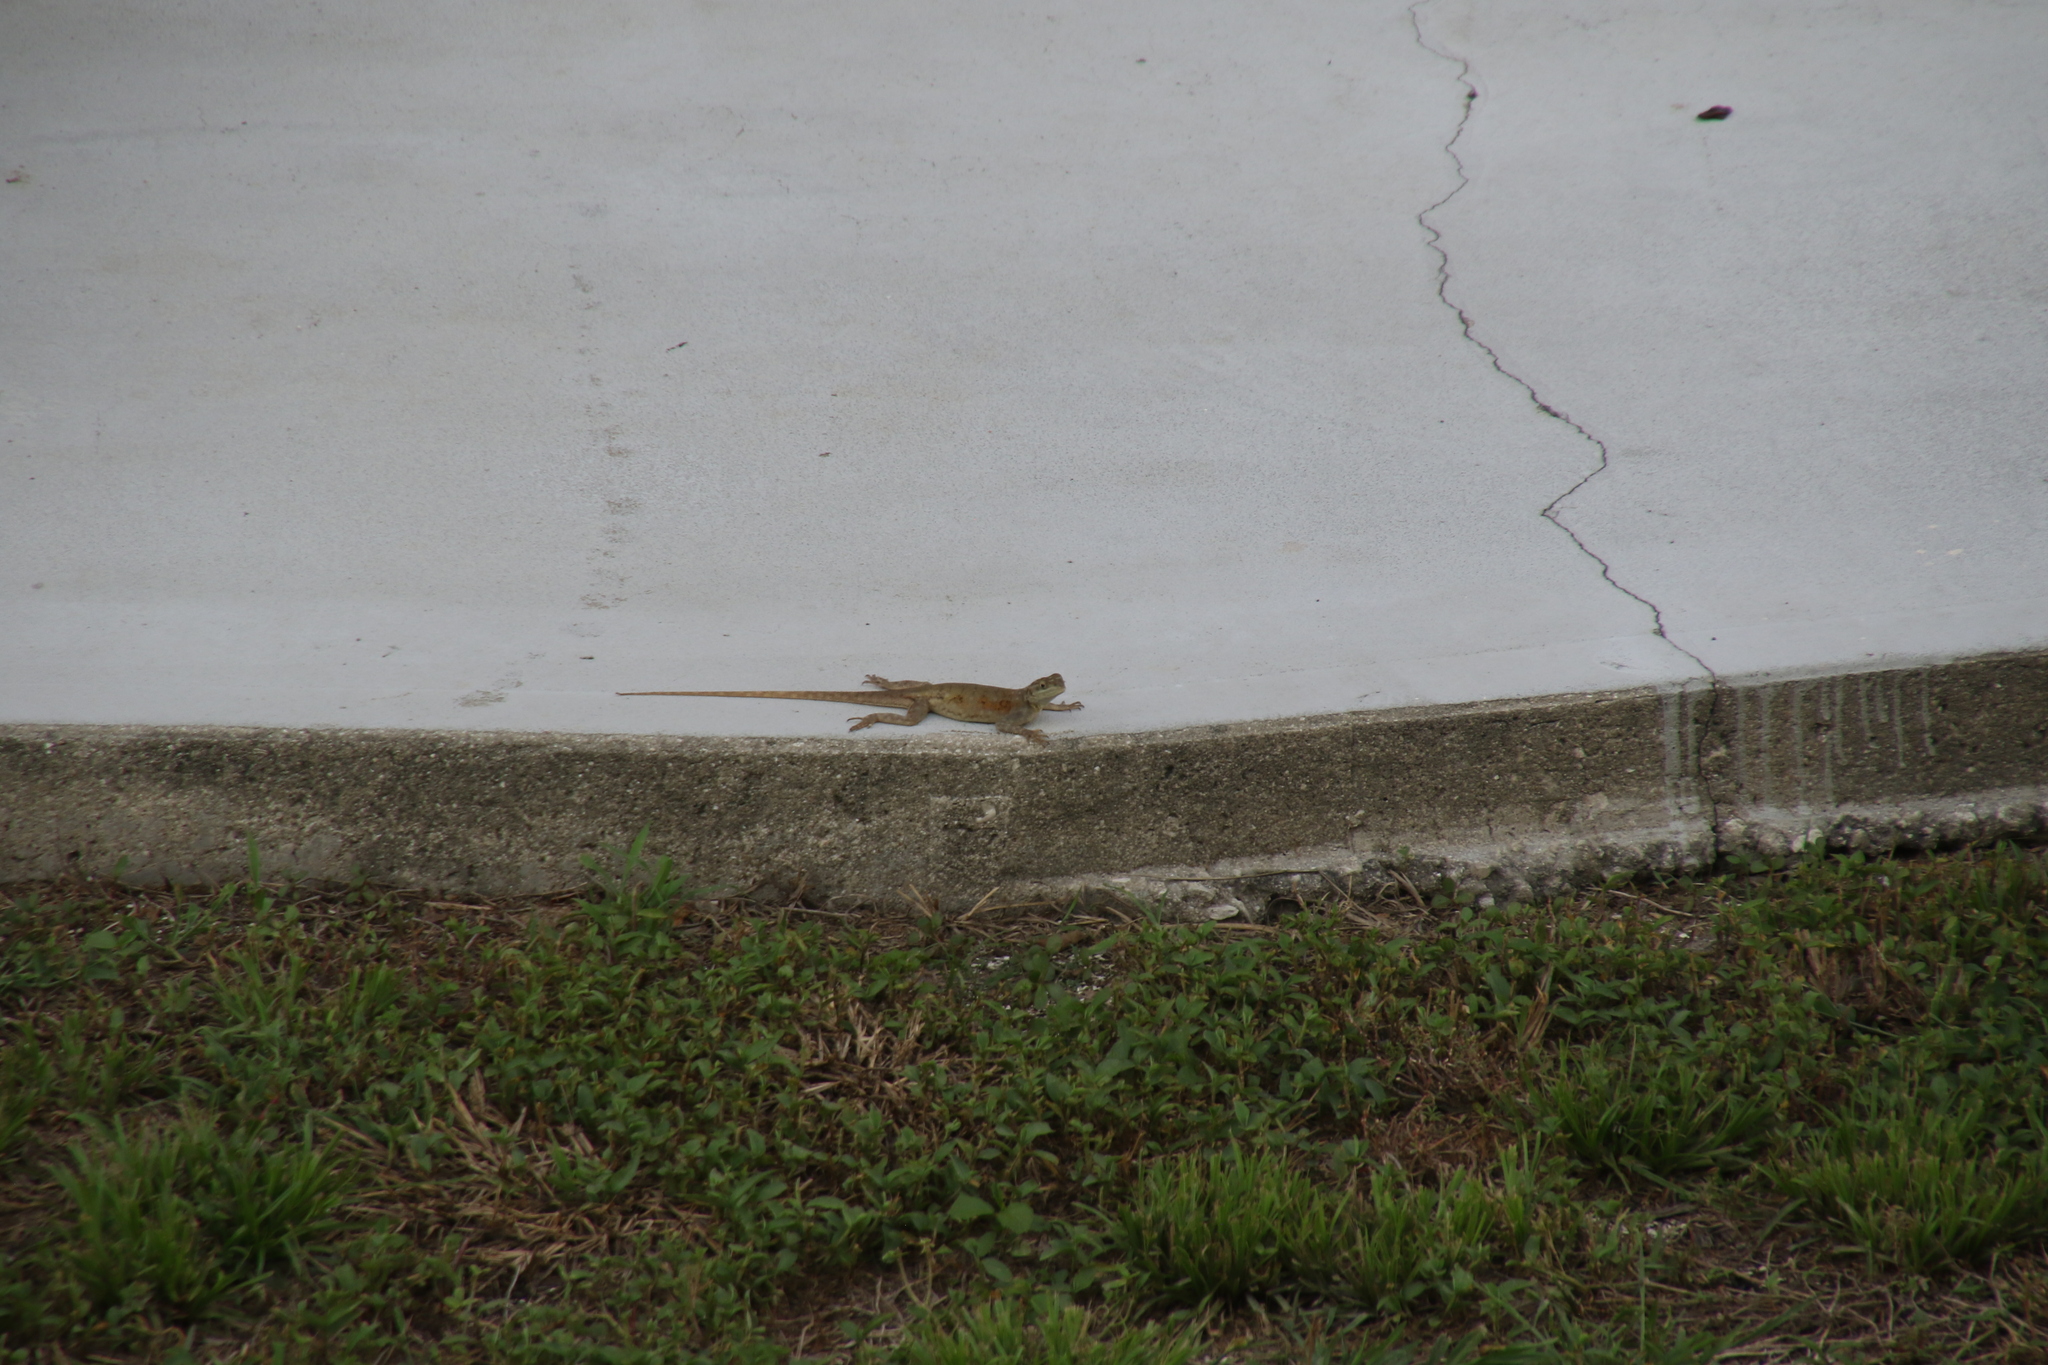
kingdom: Animalia
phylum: Chordata
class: Squamata
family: Agamidae
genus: Agama
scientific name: Agama picticauda
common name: Red-headed agama
